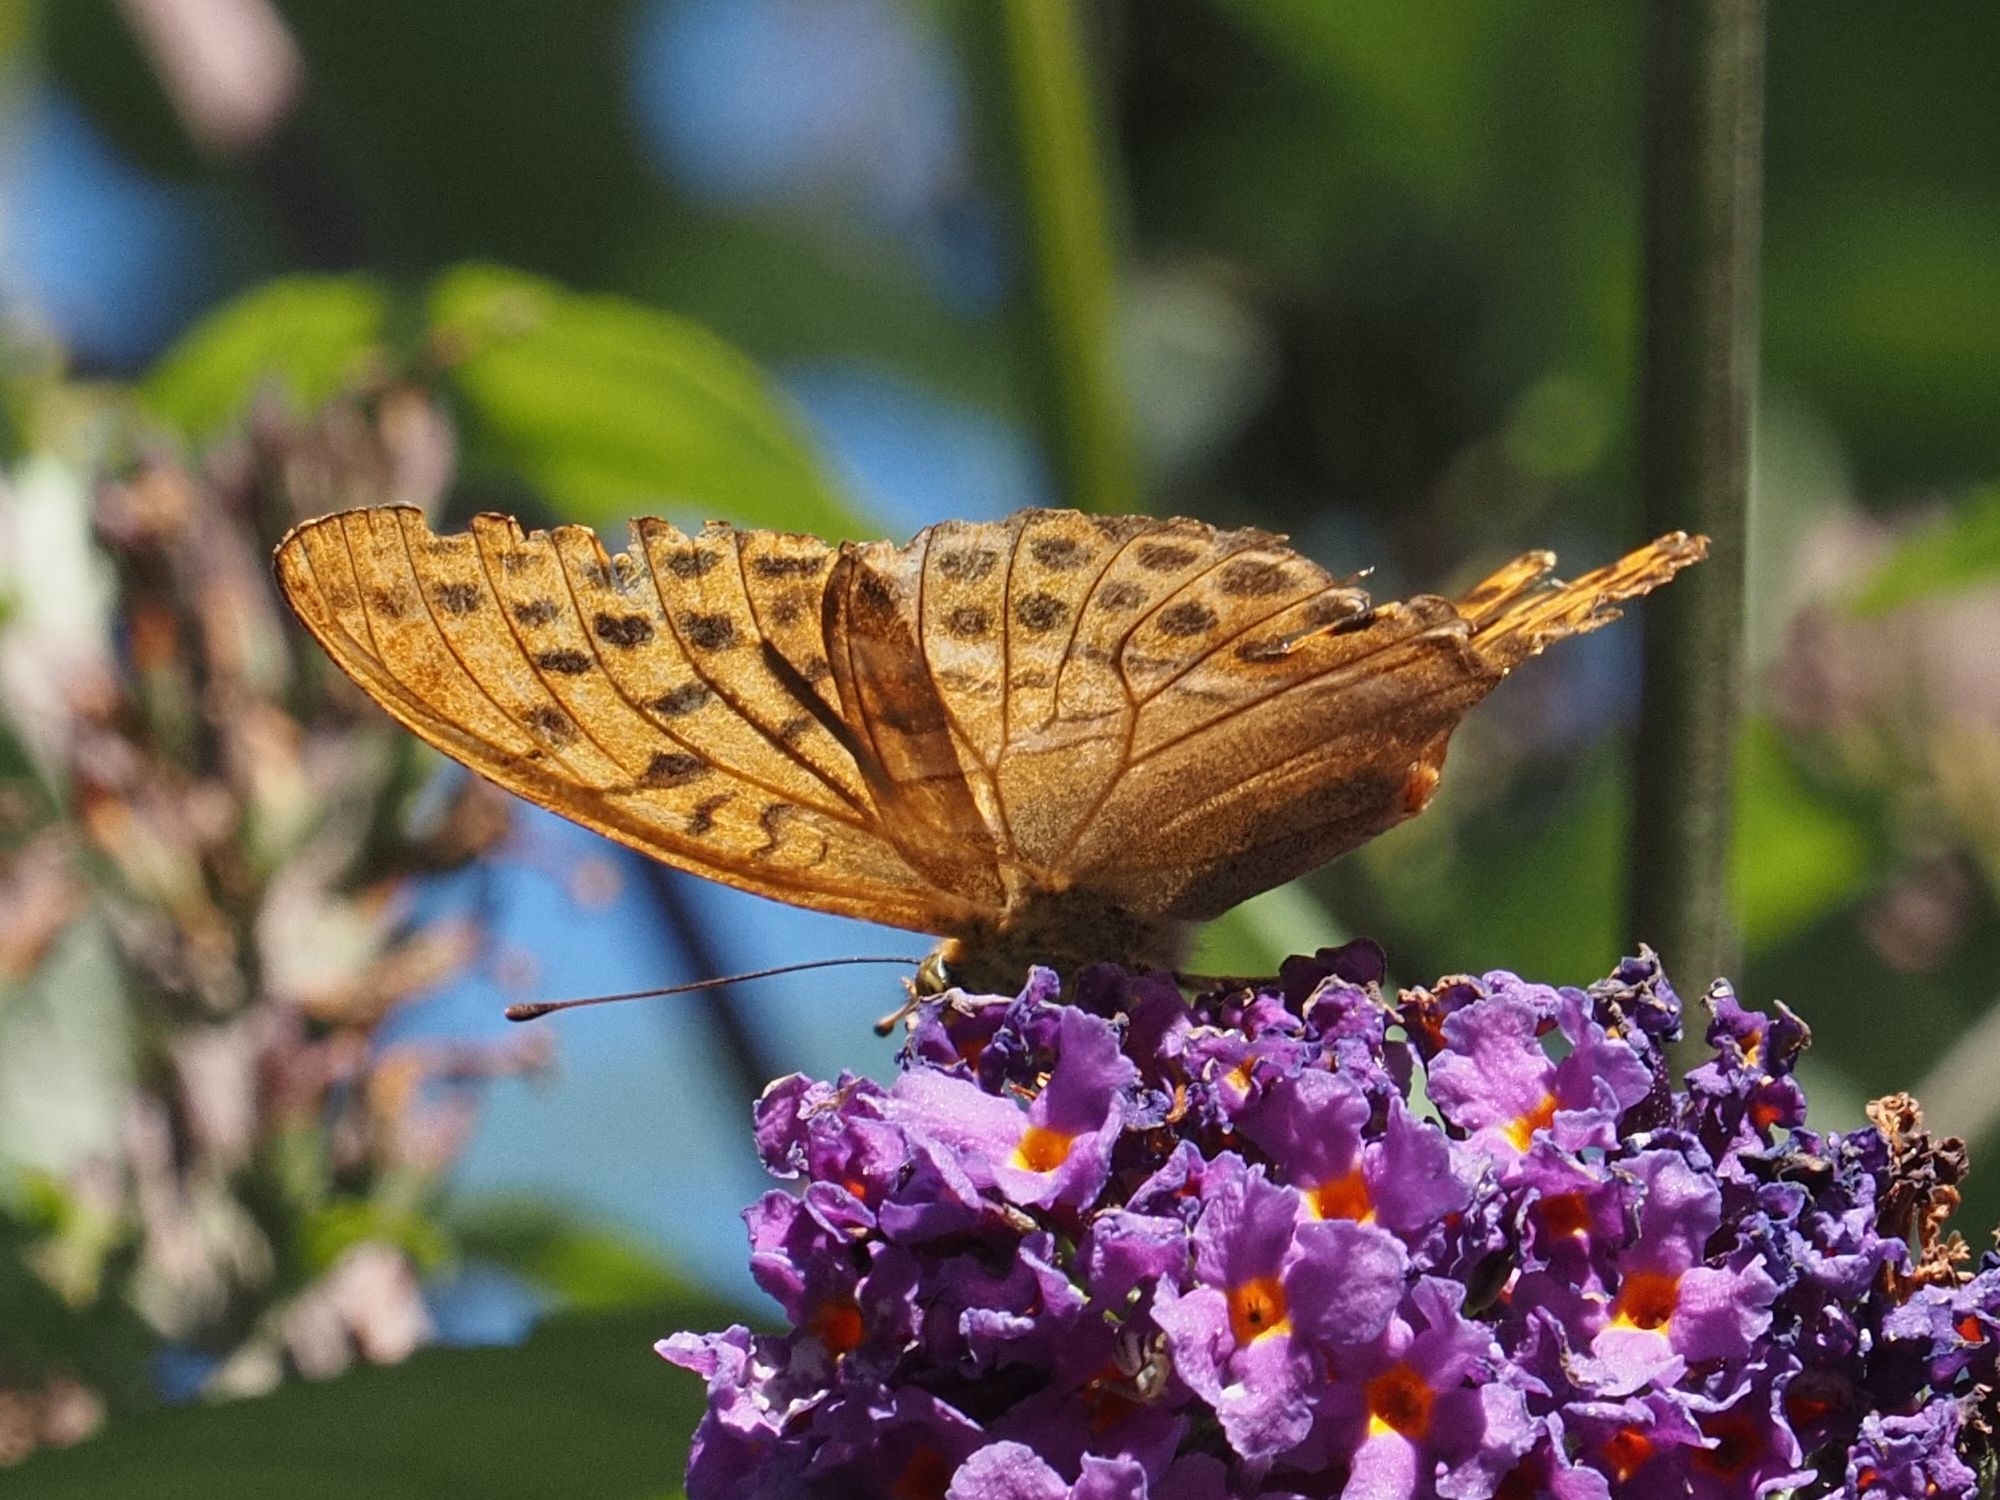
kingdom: Animalia
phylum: Arthropoda
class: Insecta
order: Lepidoptera
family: Nymphalidae
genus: Argynnis
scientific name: Argynnis paphia
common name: Silver-washed fritillary
